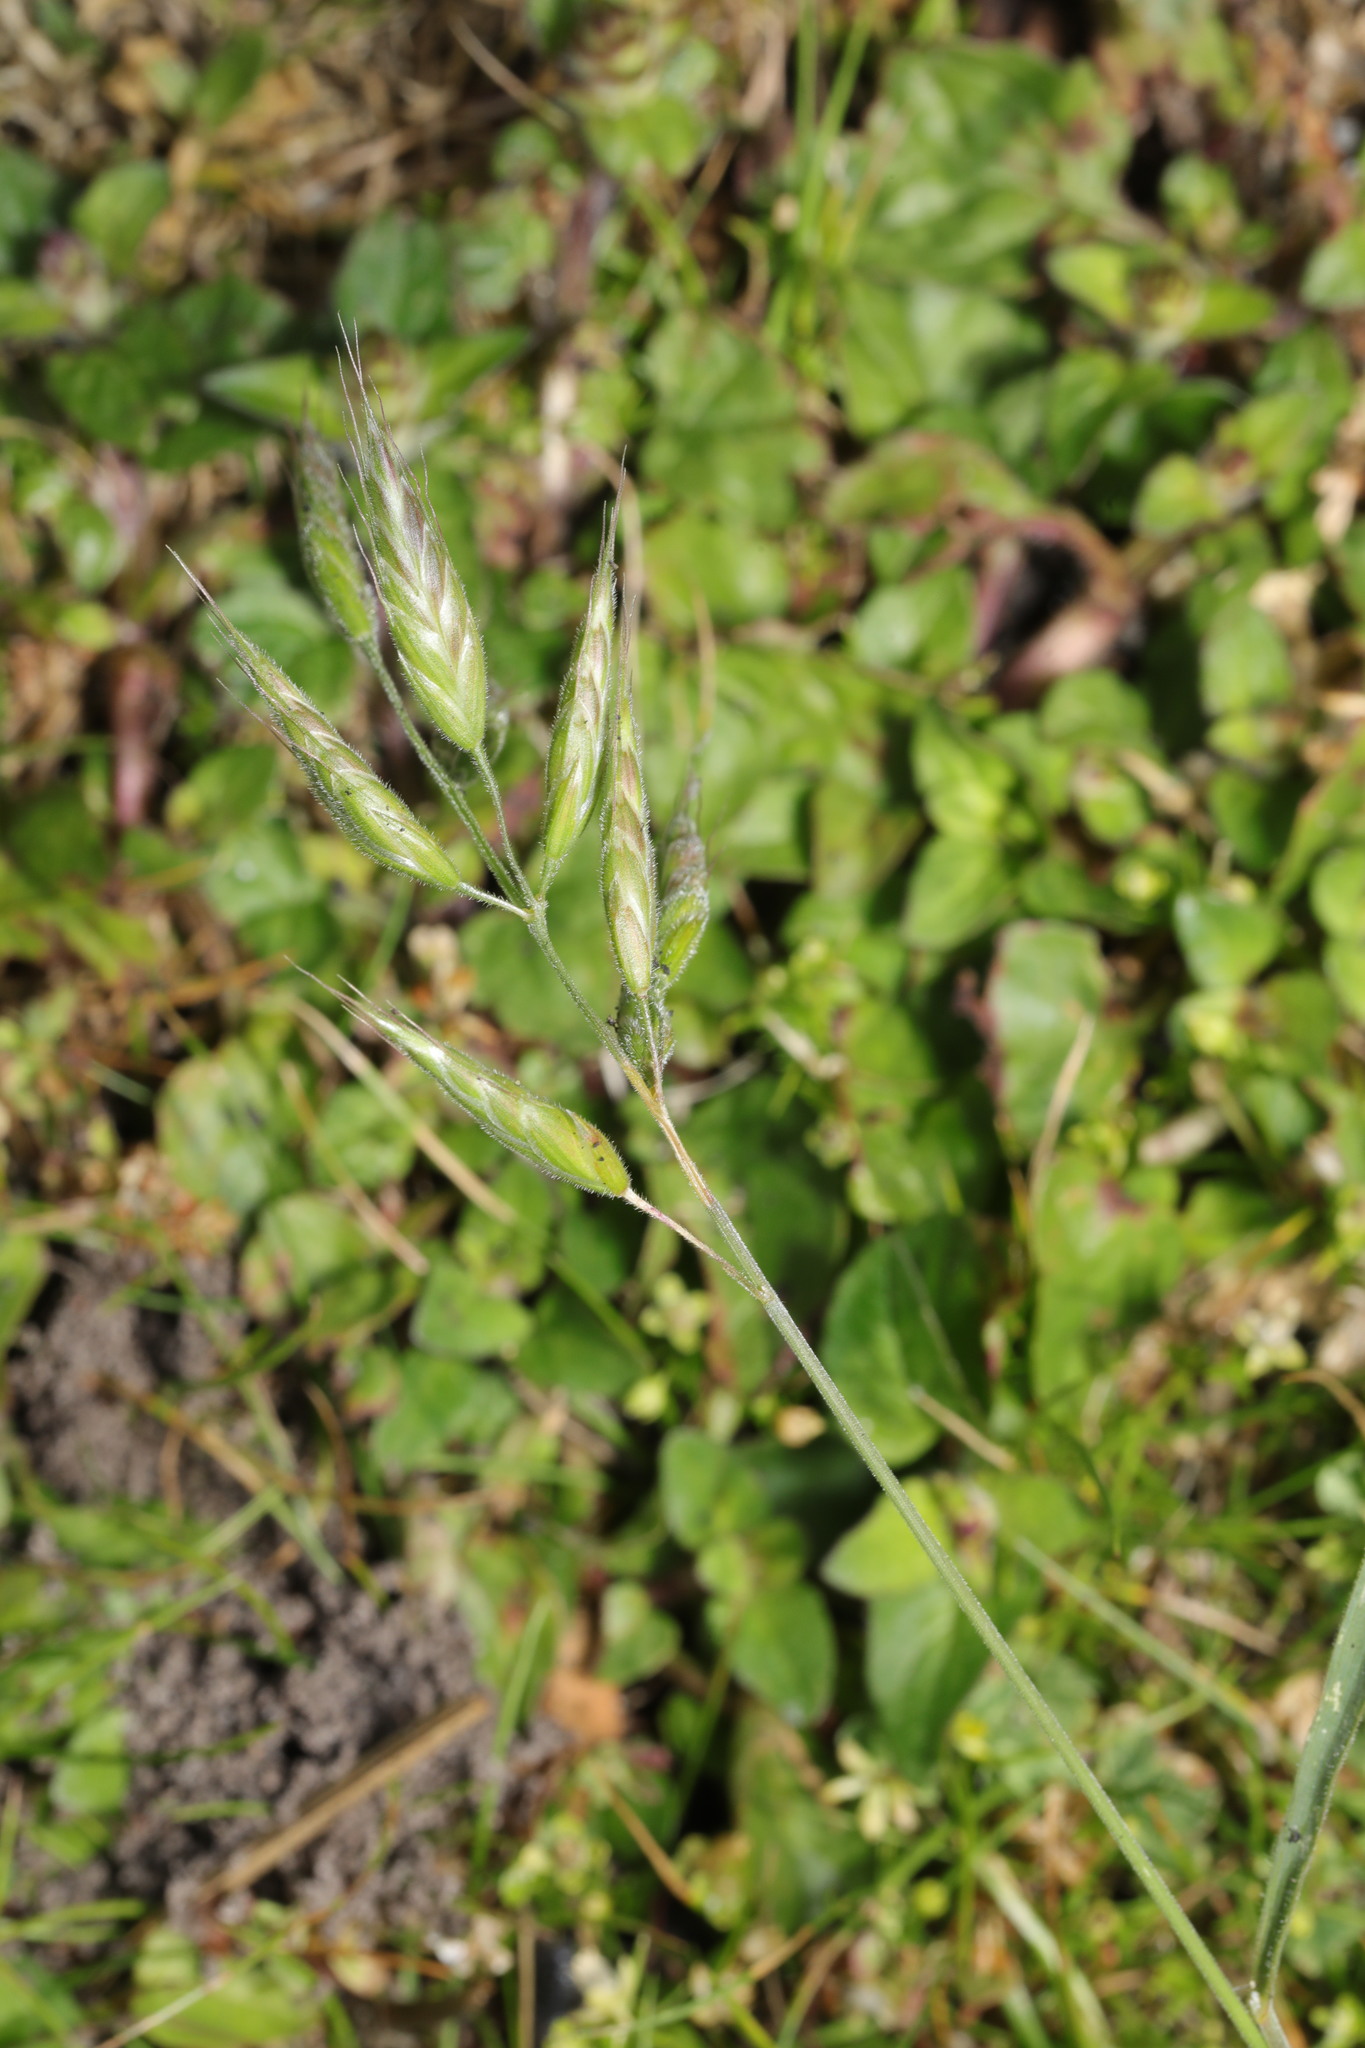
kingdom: Plantae
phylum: Tracheophyta
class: Liliopsida
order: Poales
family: Poaceae
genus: Bromus
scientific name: Bromus hordeaceus
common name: Soft brome
